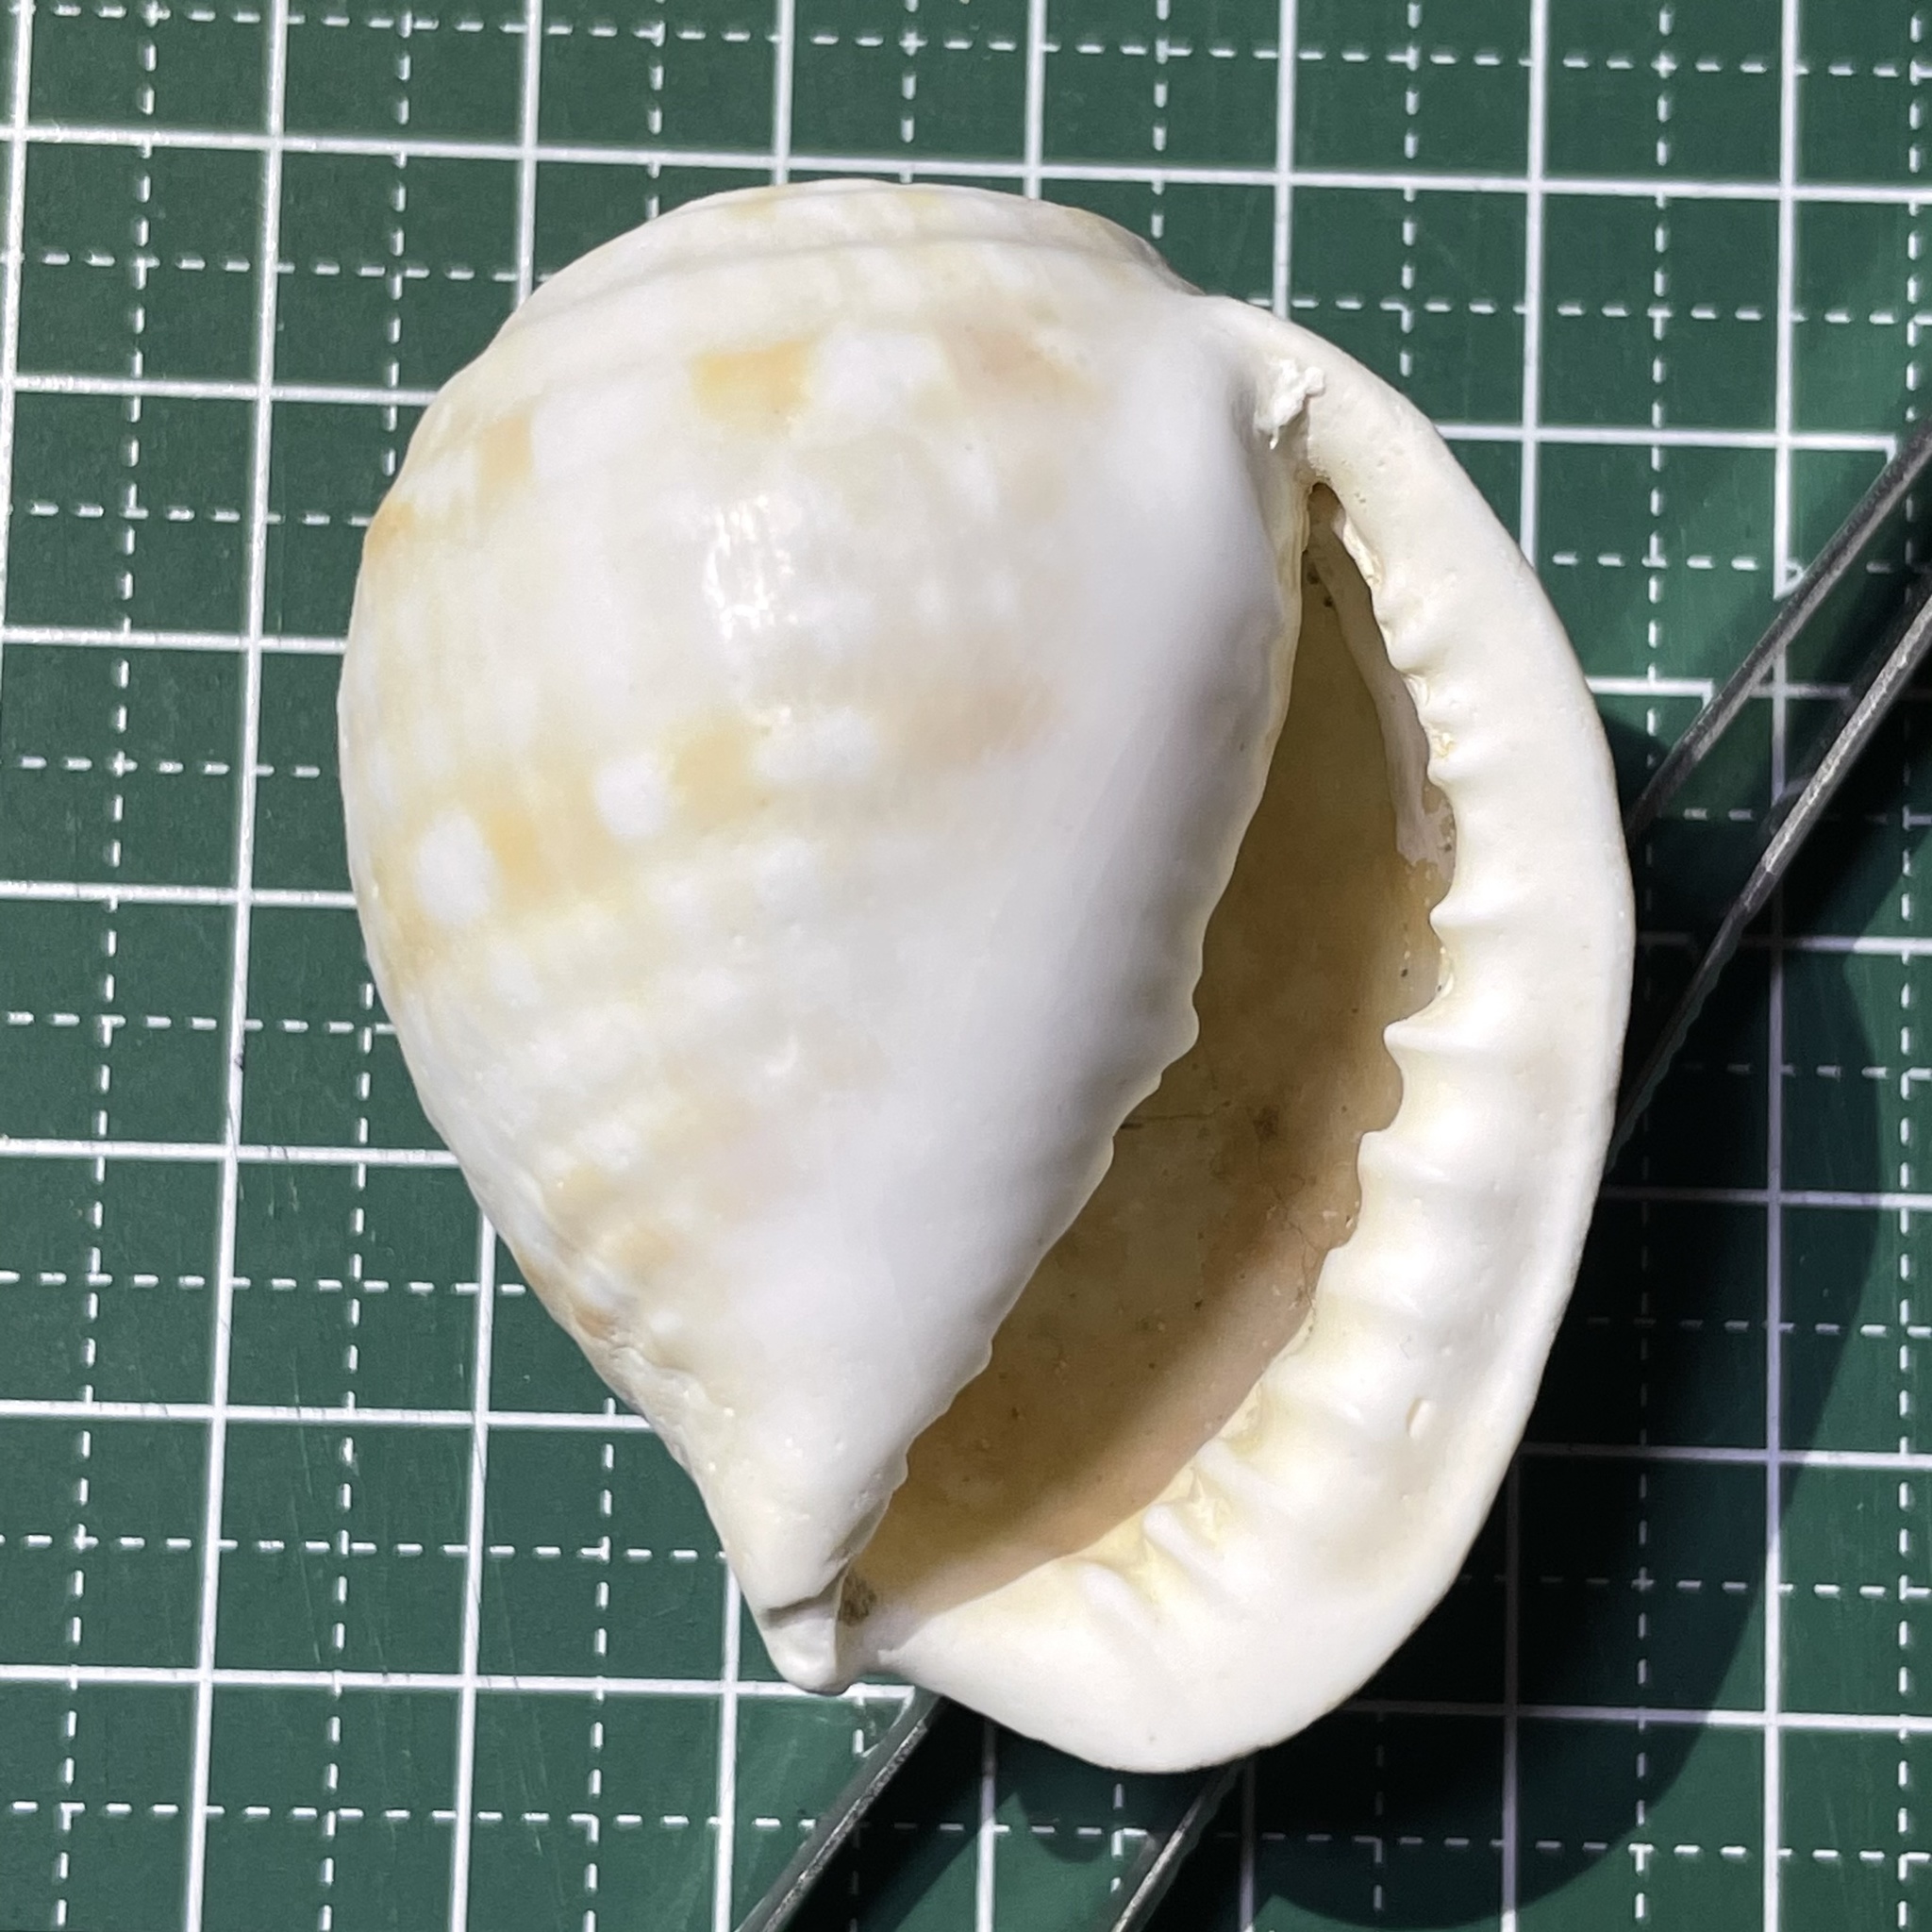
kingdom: Animalia
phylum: Mollusca
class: Gastropoda
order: Littorinimorpha
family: Tonnidae
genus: Malea
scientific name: Malea pomum
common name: Pacific grinning tun
